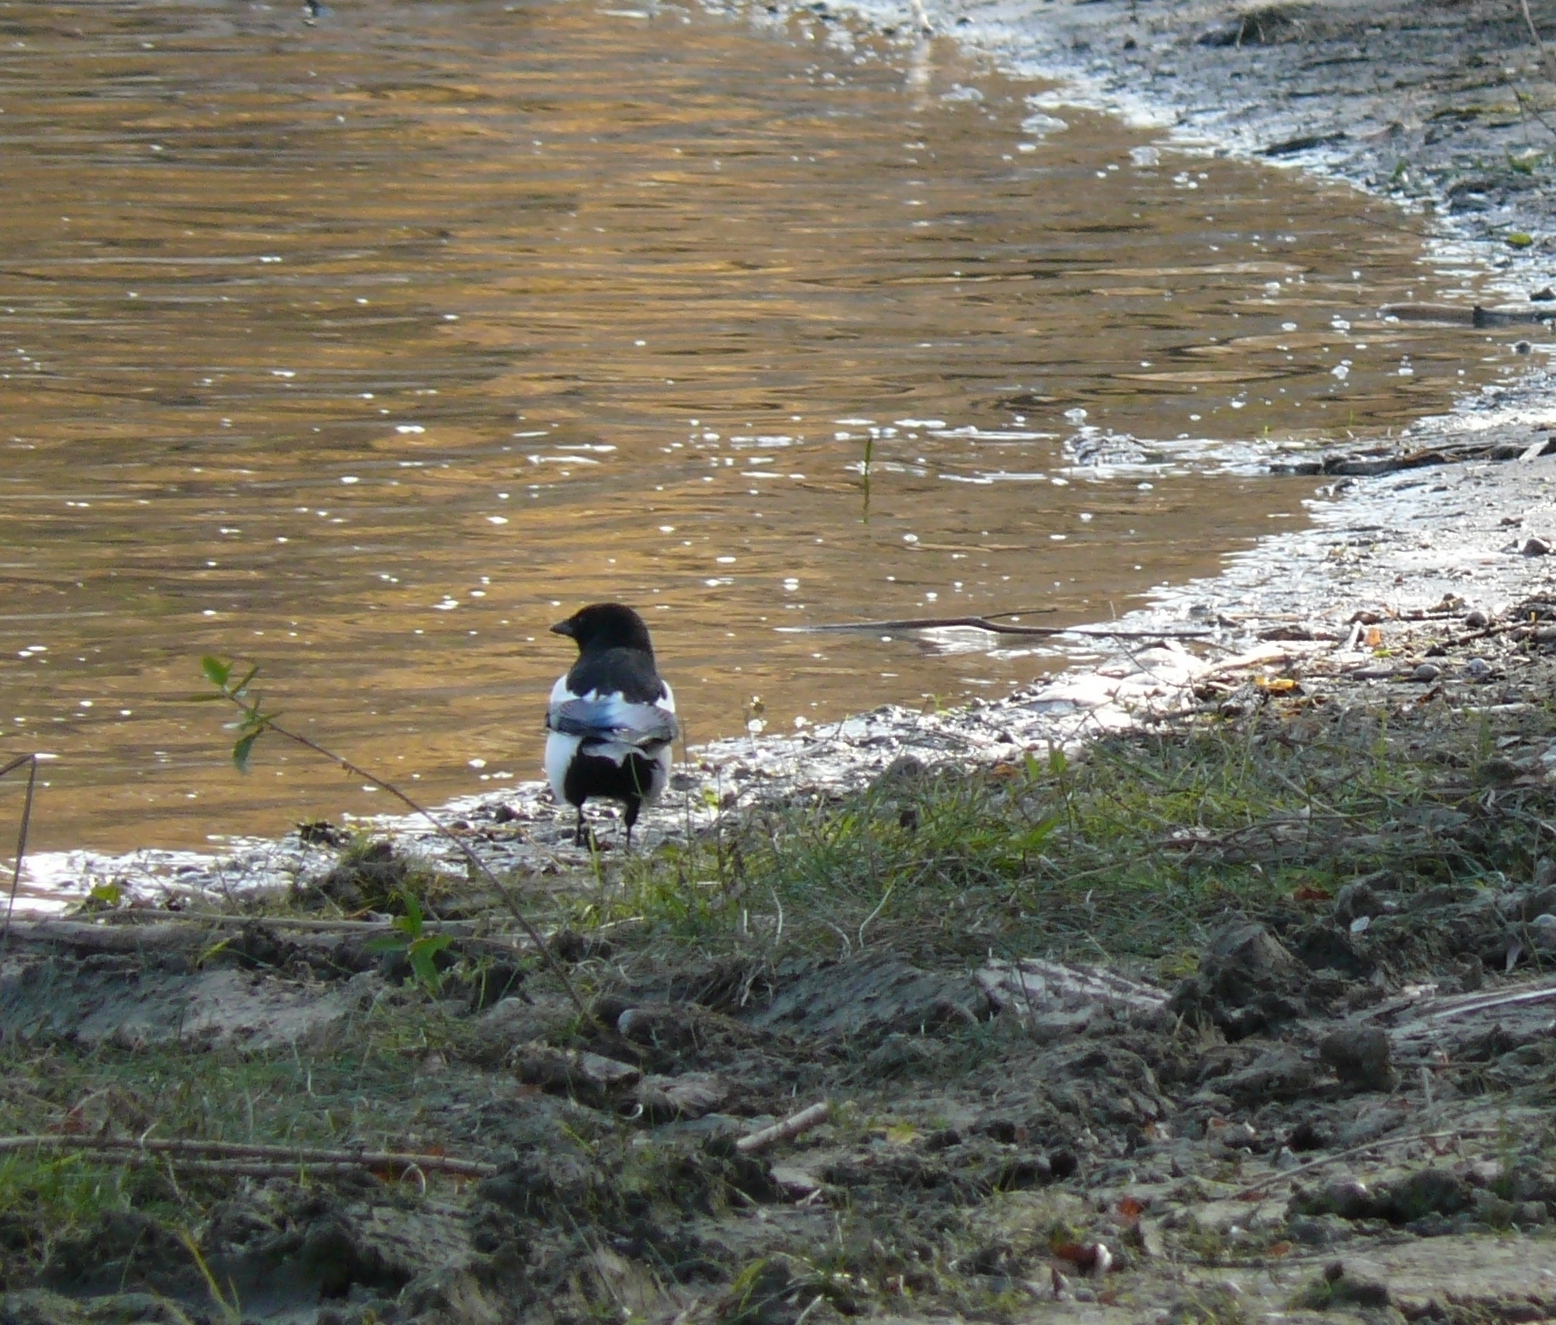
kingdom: Animalia
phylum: Chordata
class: Aves
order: Passeriformes
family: Corvidae
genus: Pica
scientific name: Pica pica
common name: Eurasian magpie
